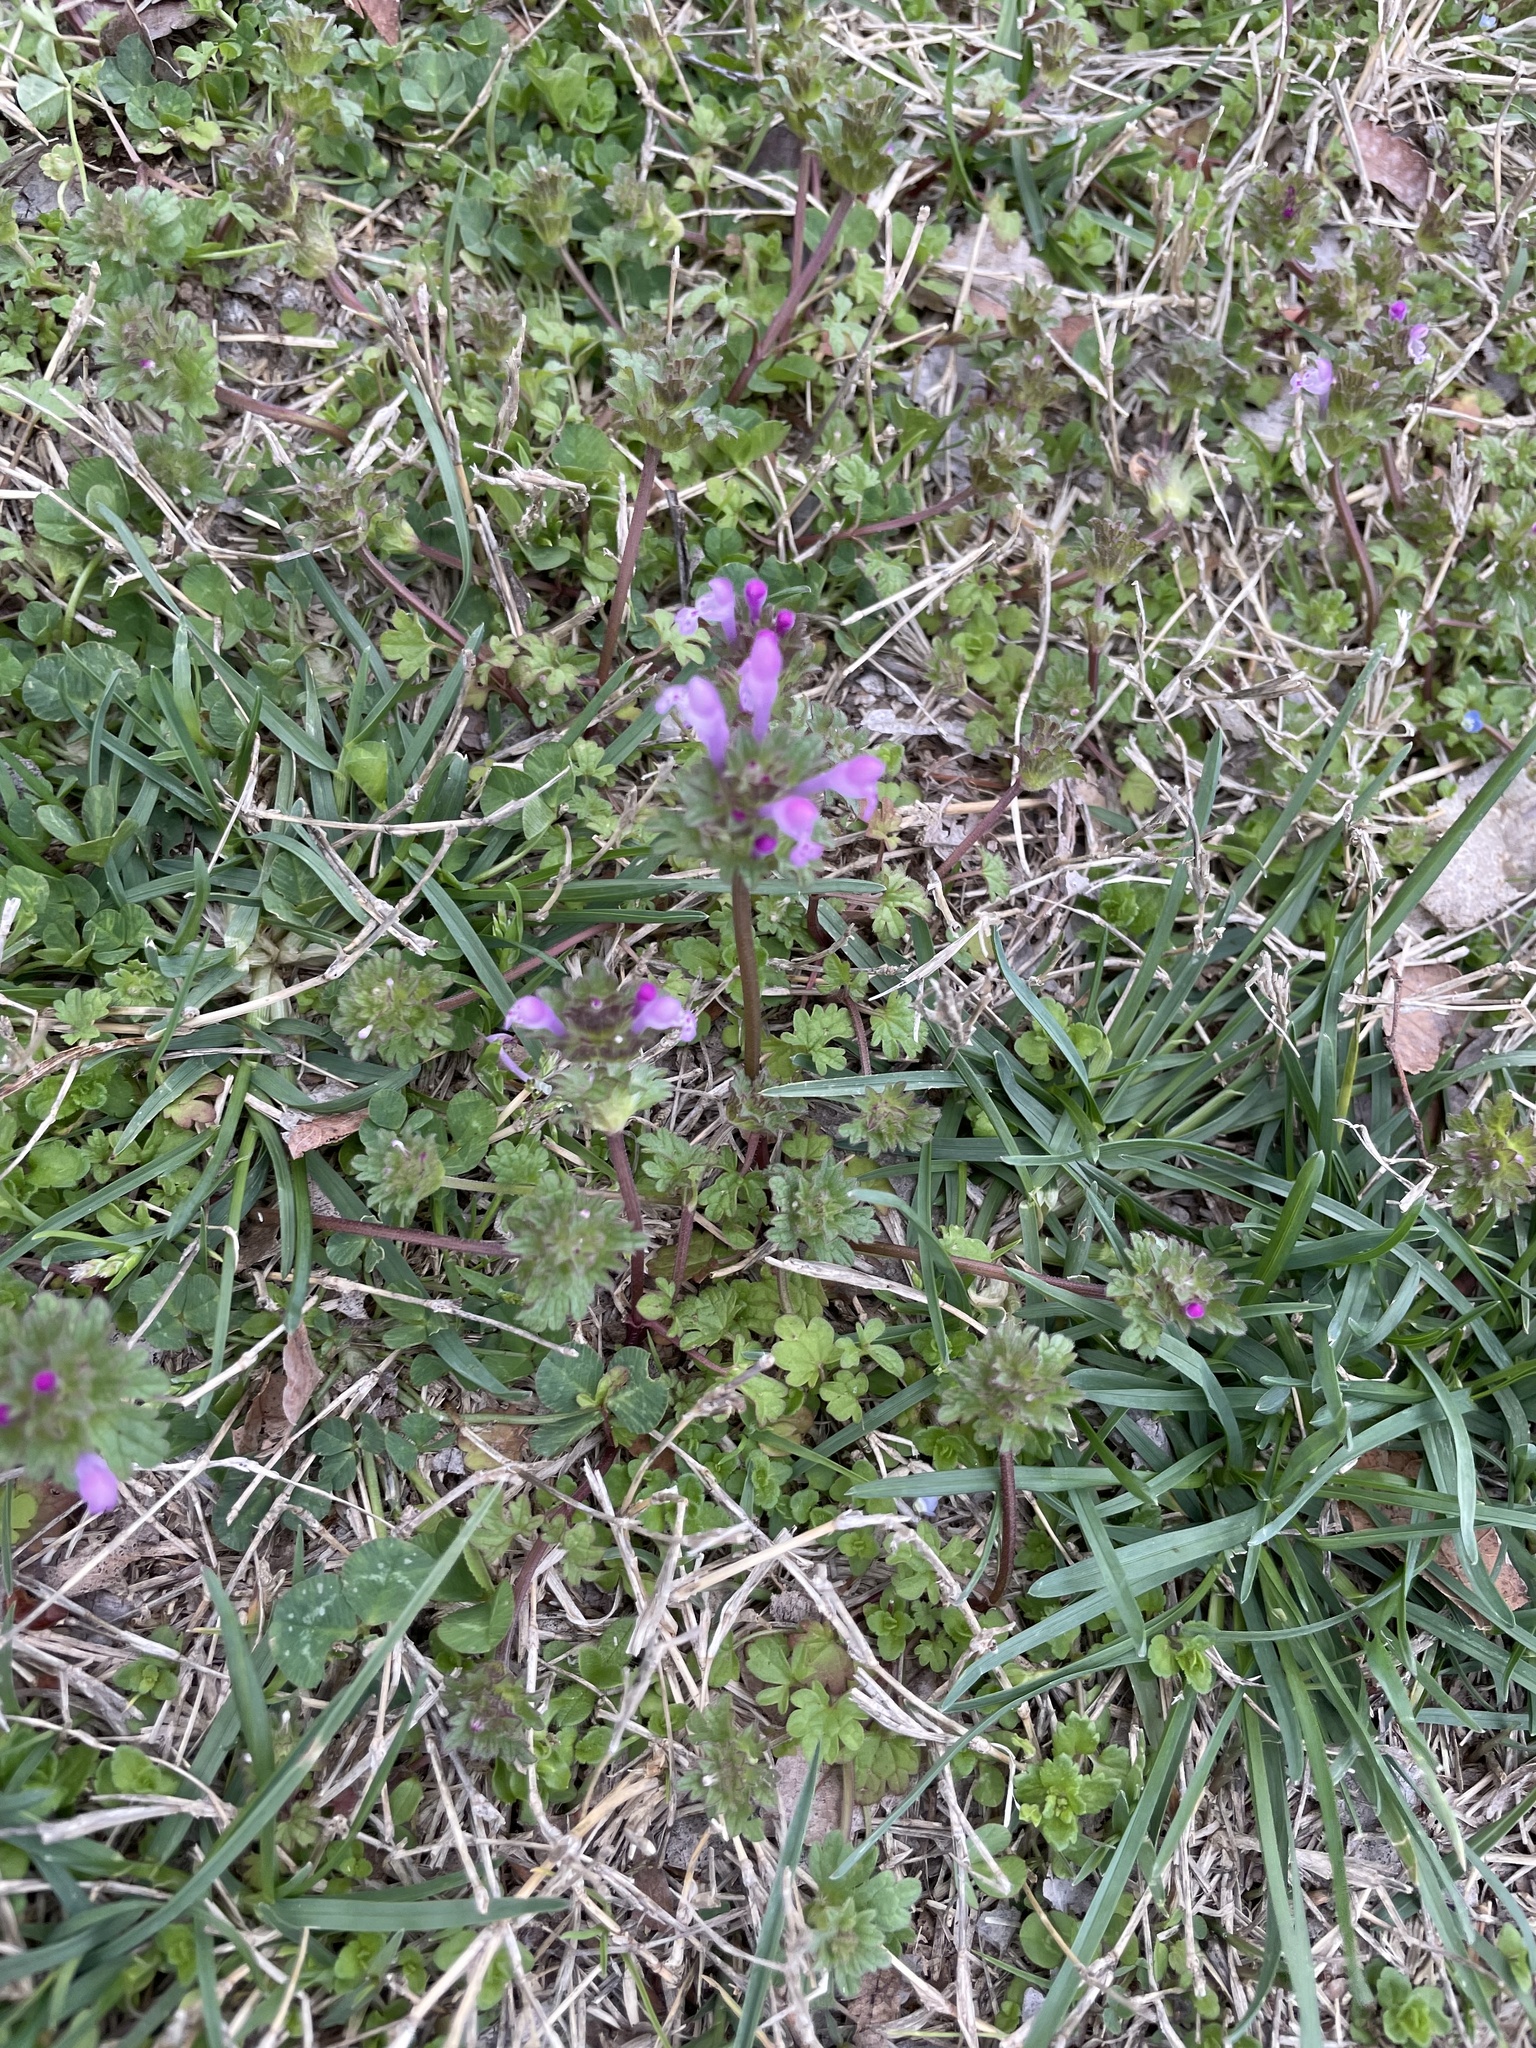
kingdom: Plantae
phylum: Tracheophyta
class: Magnoliopsida
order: Lamiales
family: Lamiaceae
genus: Lamium
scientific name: Lamium amplexicaule
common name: Henbit dead-nettle
